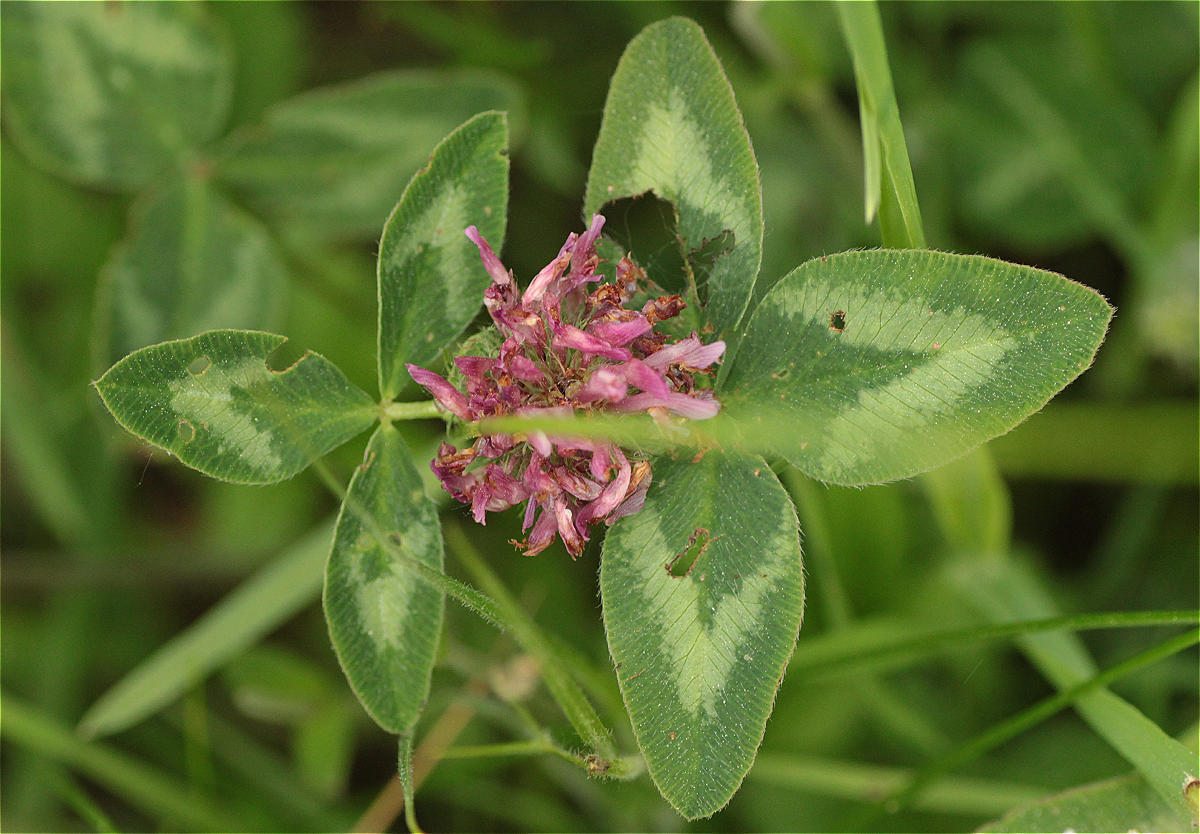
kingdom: Plantae
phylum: Tracheophyta
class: Magnoliopsida
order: Fabales
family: Fabaceae
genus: Trifolium
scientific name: Trifolium pratense
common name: Red clover
